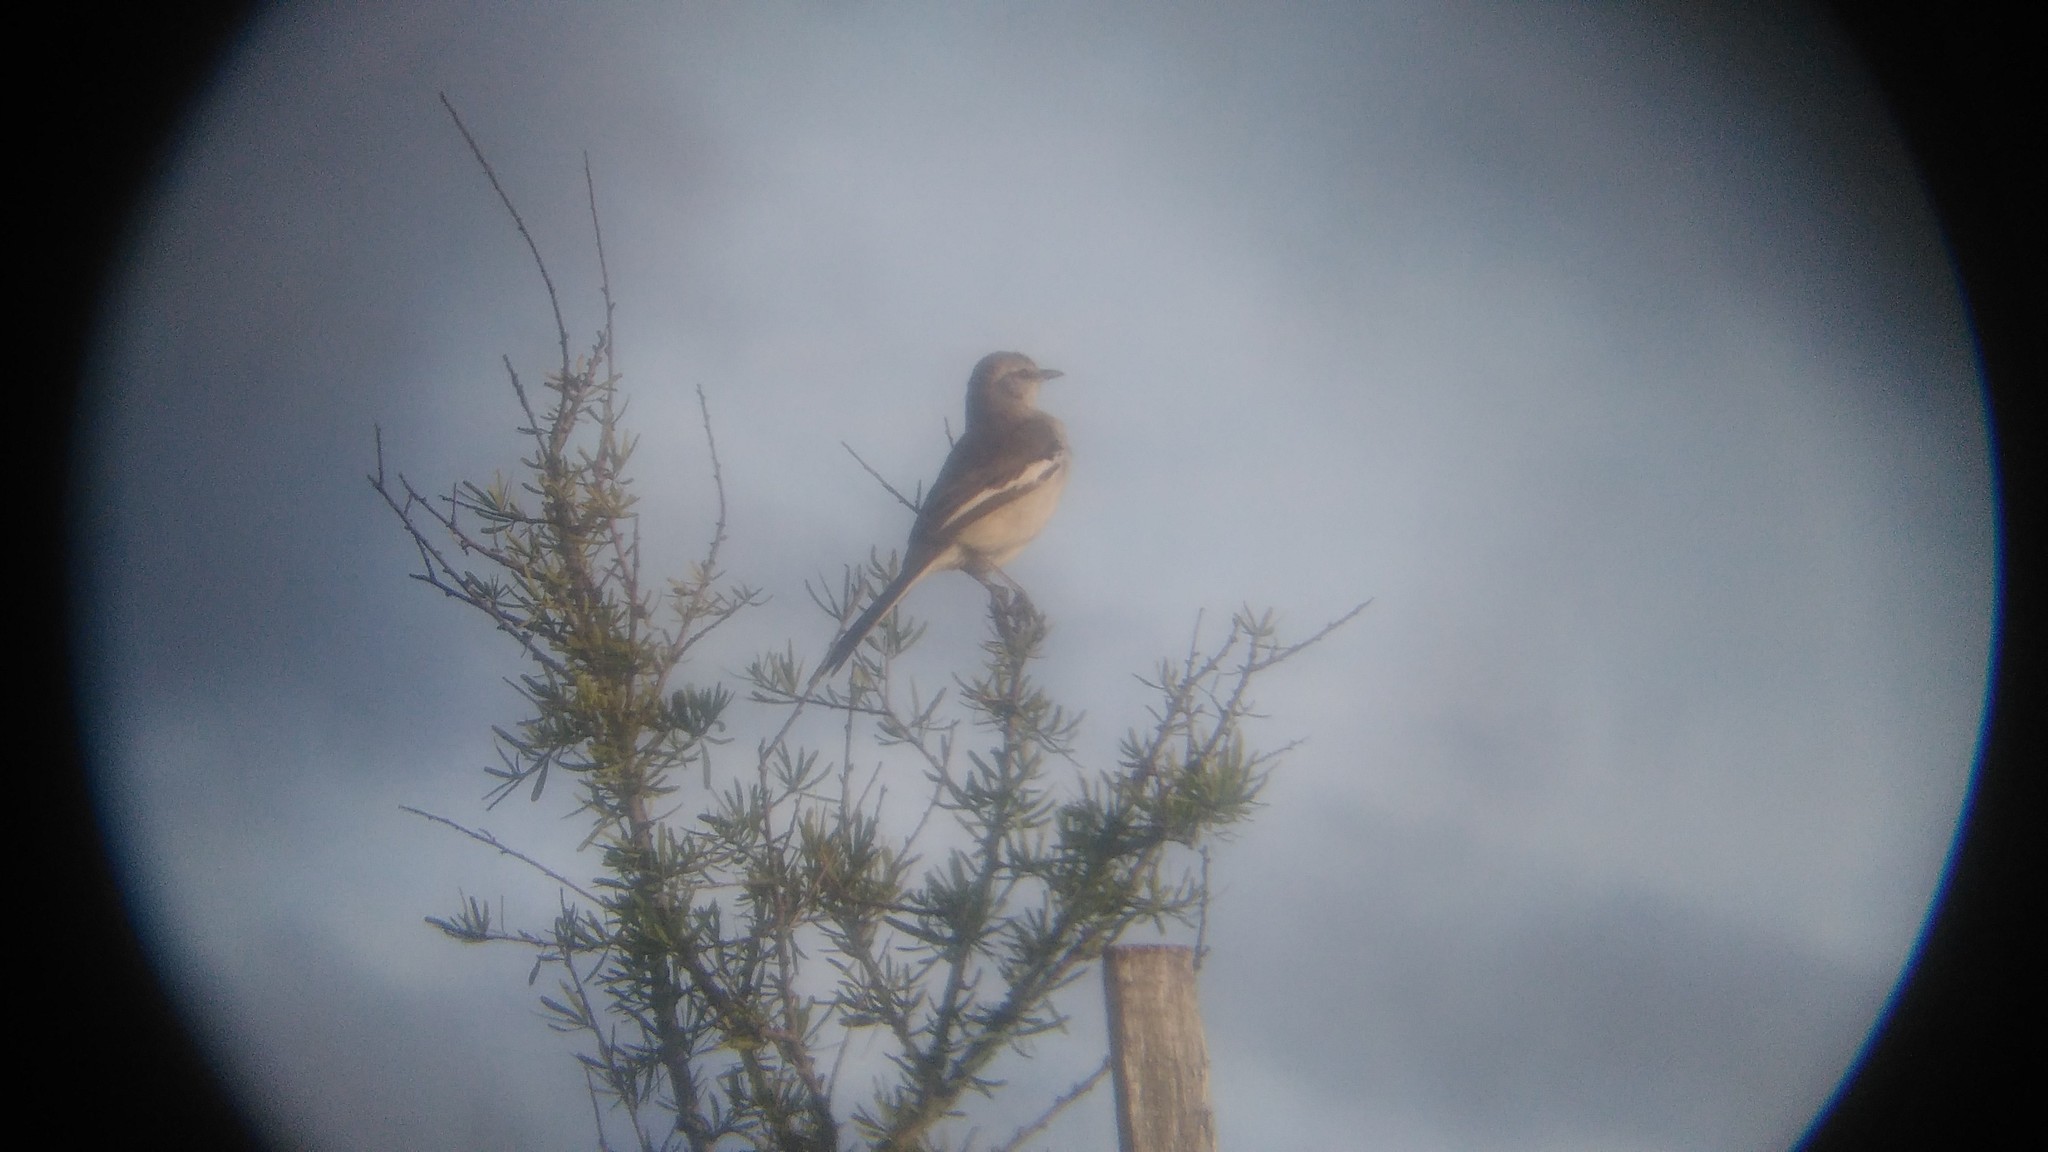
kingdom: Animalia
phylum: Chordata
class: Aves
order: Passeriformes
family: Mimidae
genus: Mimus
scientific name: Mimus triurus
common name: White-banded mockingbird
